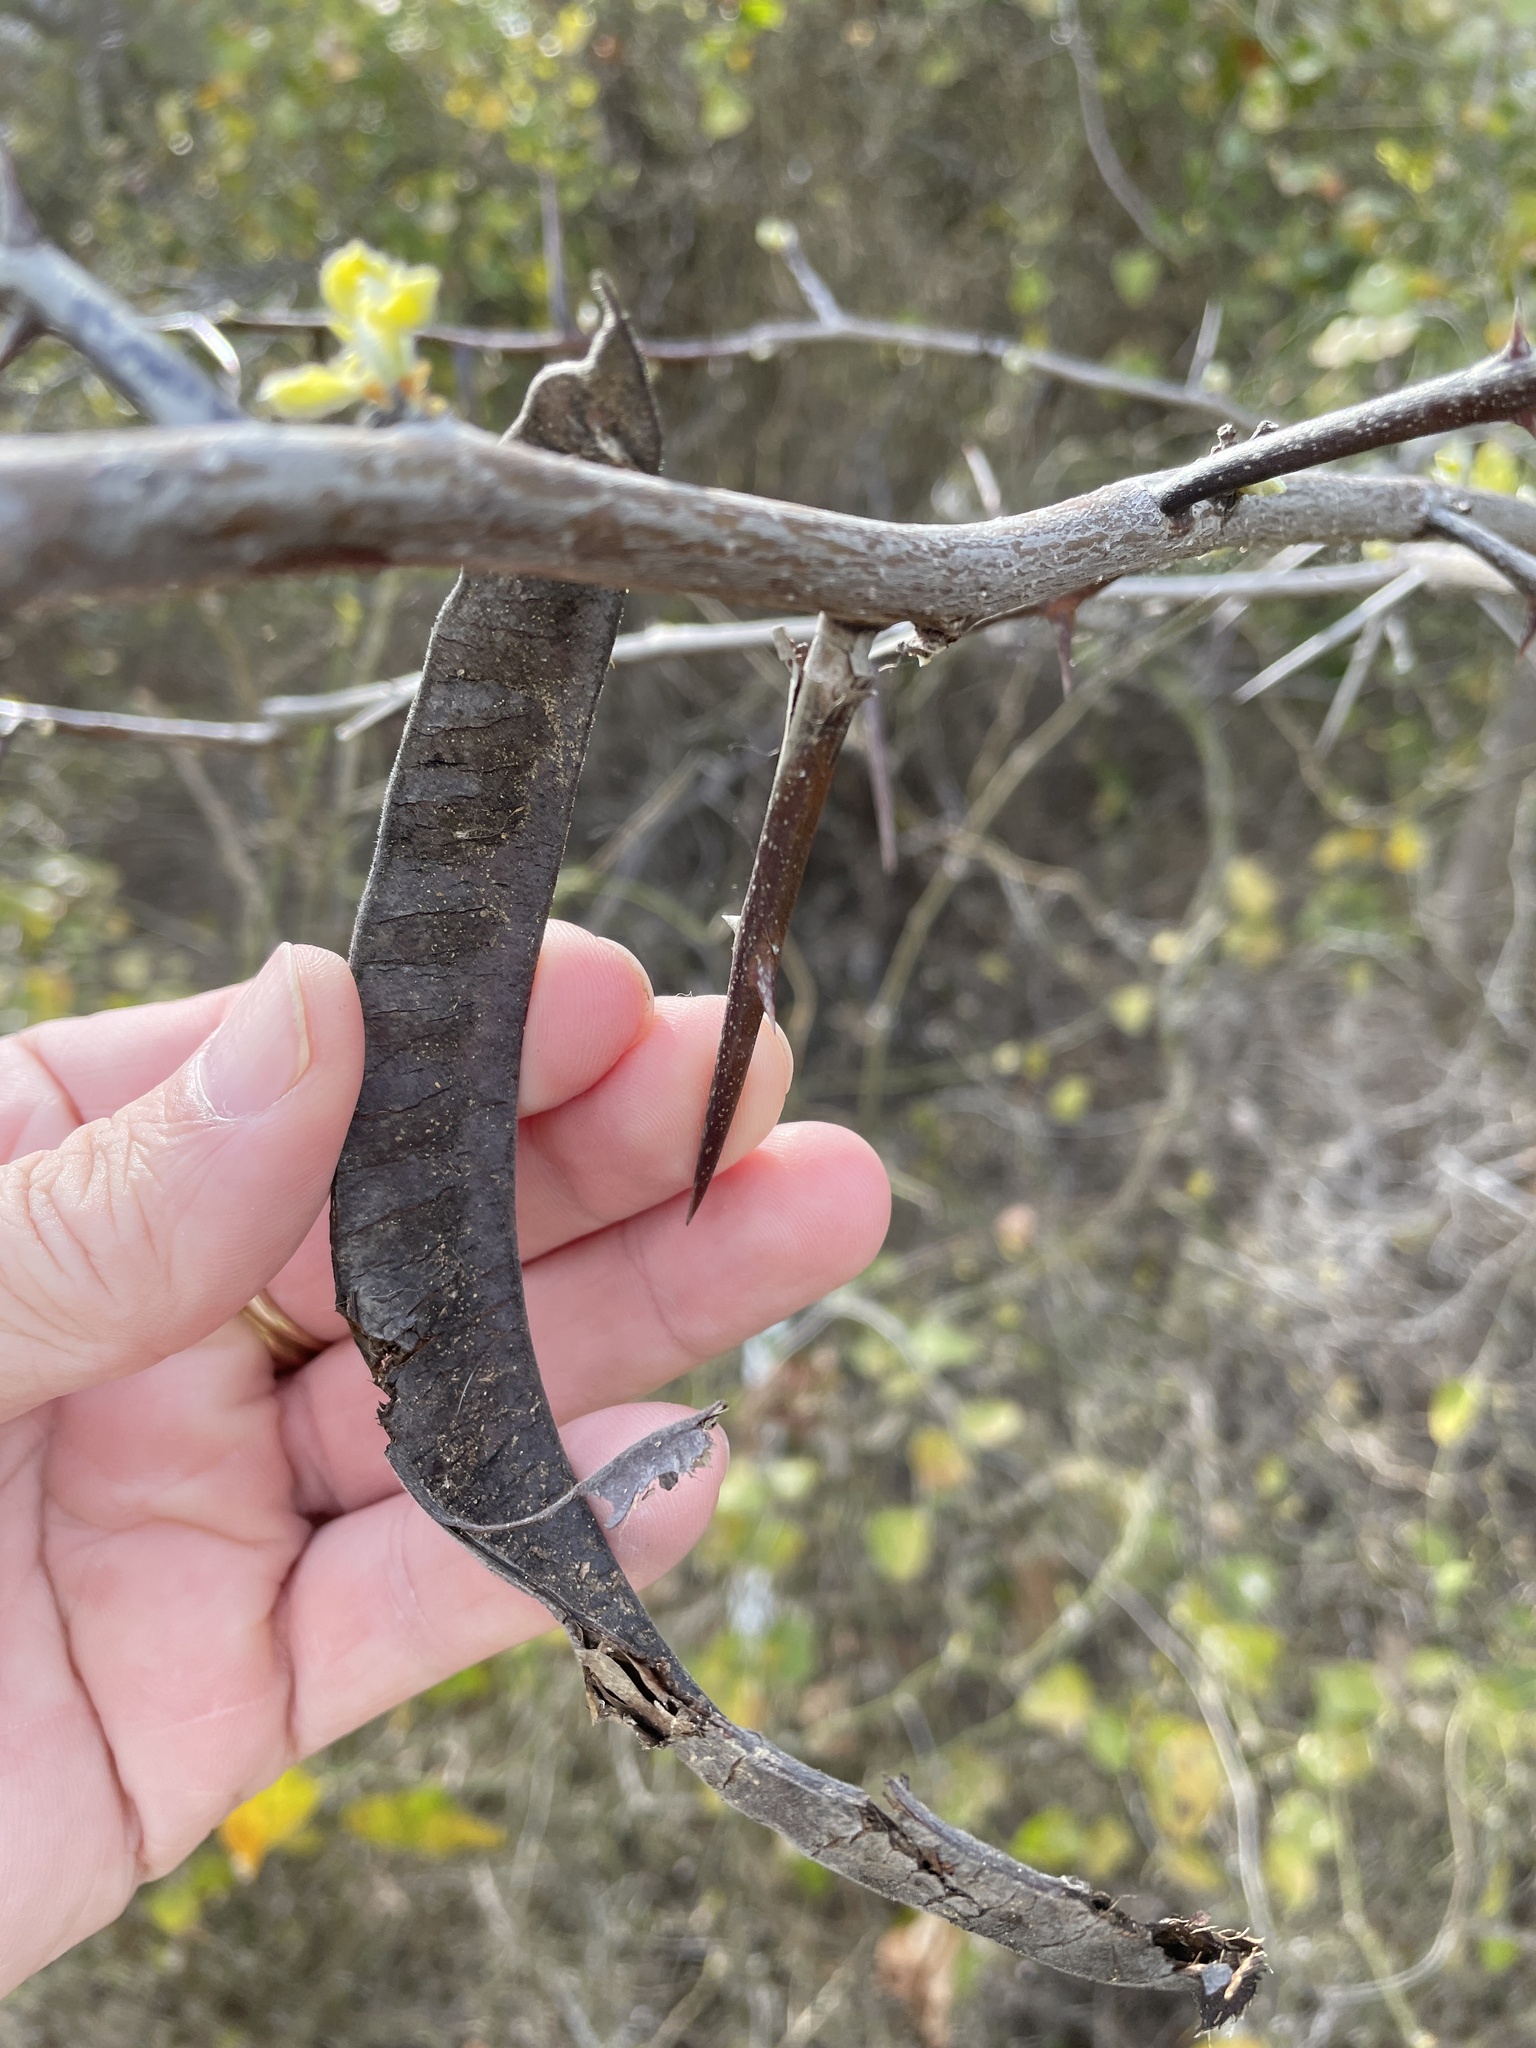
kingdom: Plantae
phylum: Tracheophyta
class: Magnoliopsida
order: Fabales
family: Fabaceae
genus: Gleditsia
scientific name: Gleditsia triacanthos
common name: Common honeylocust
